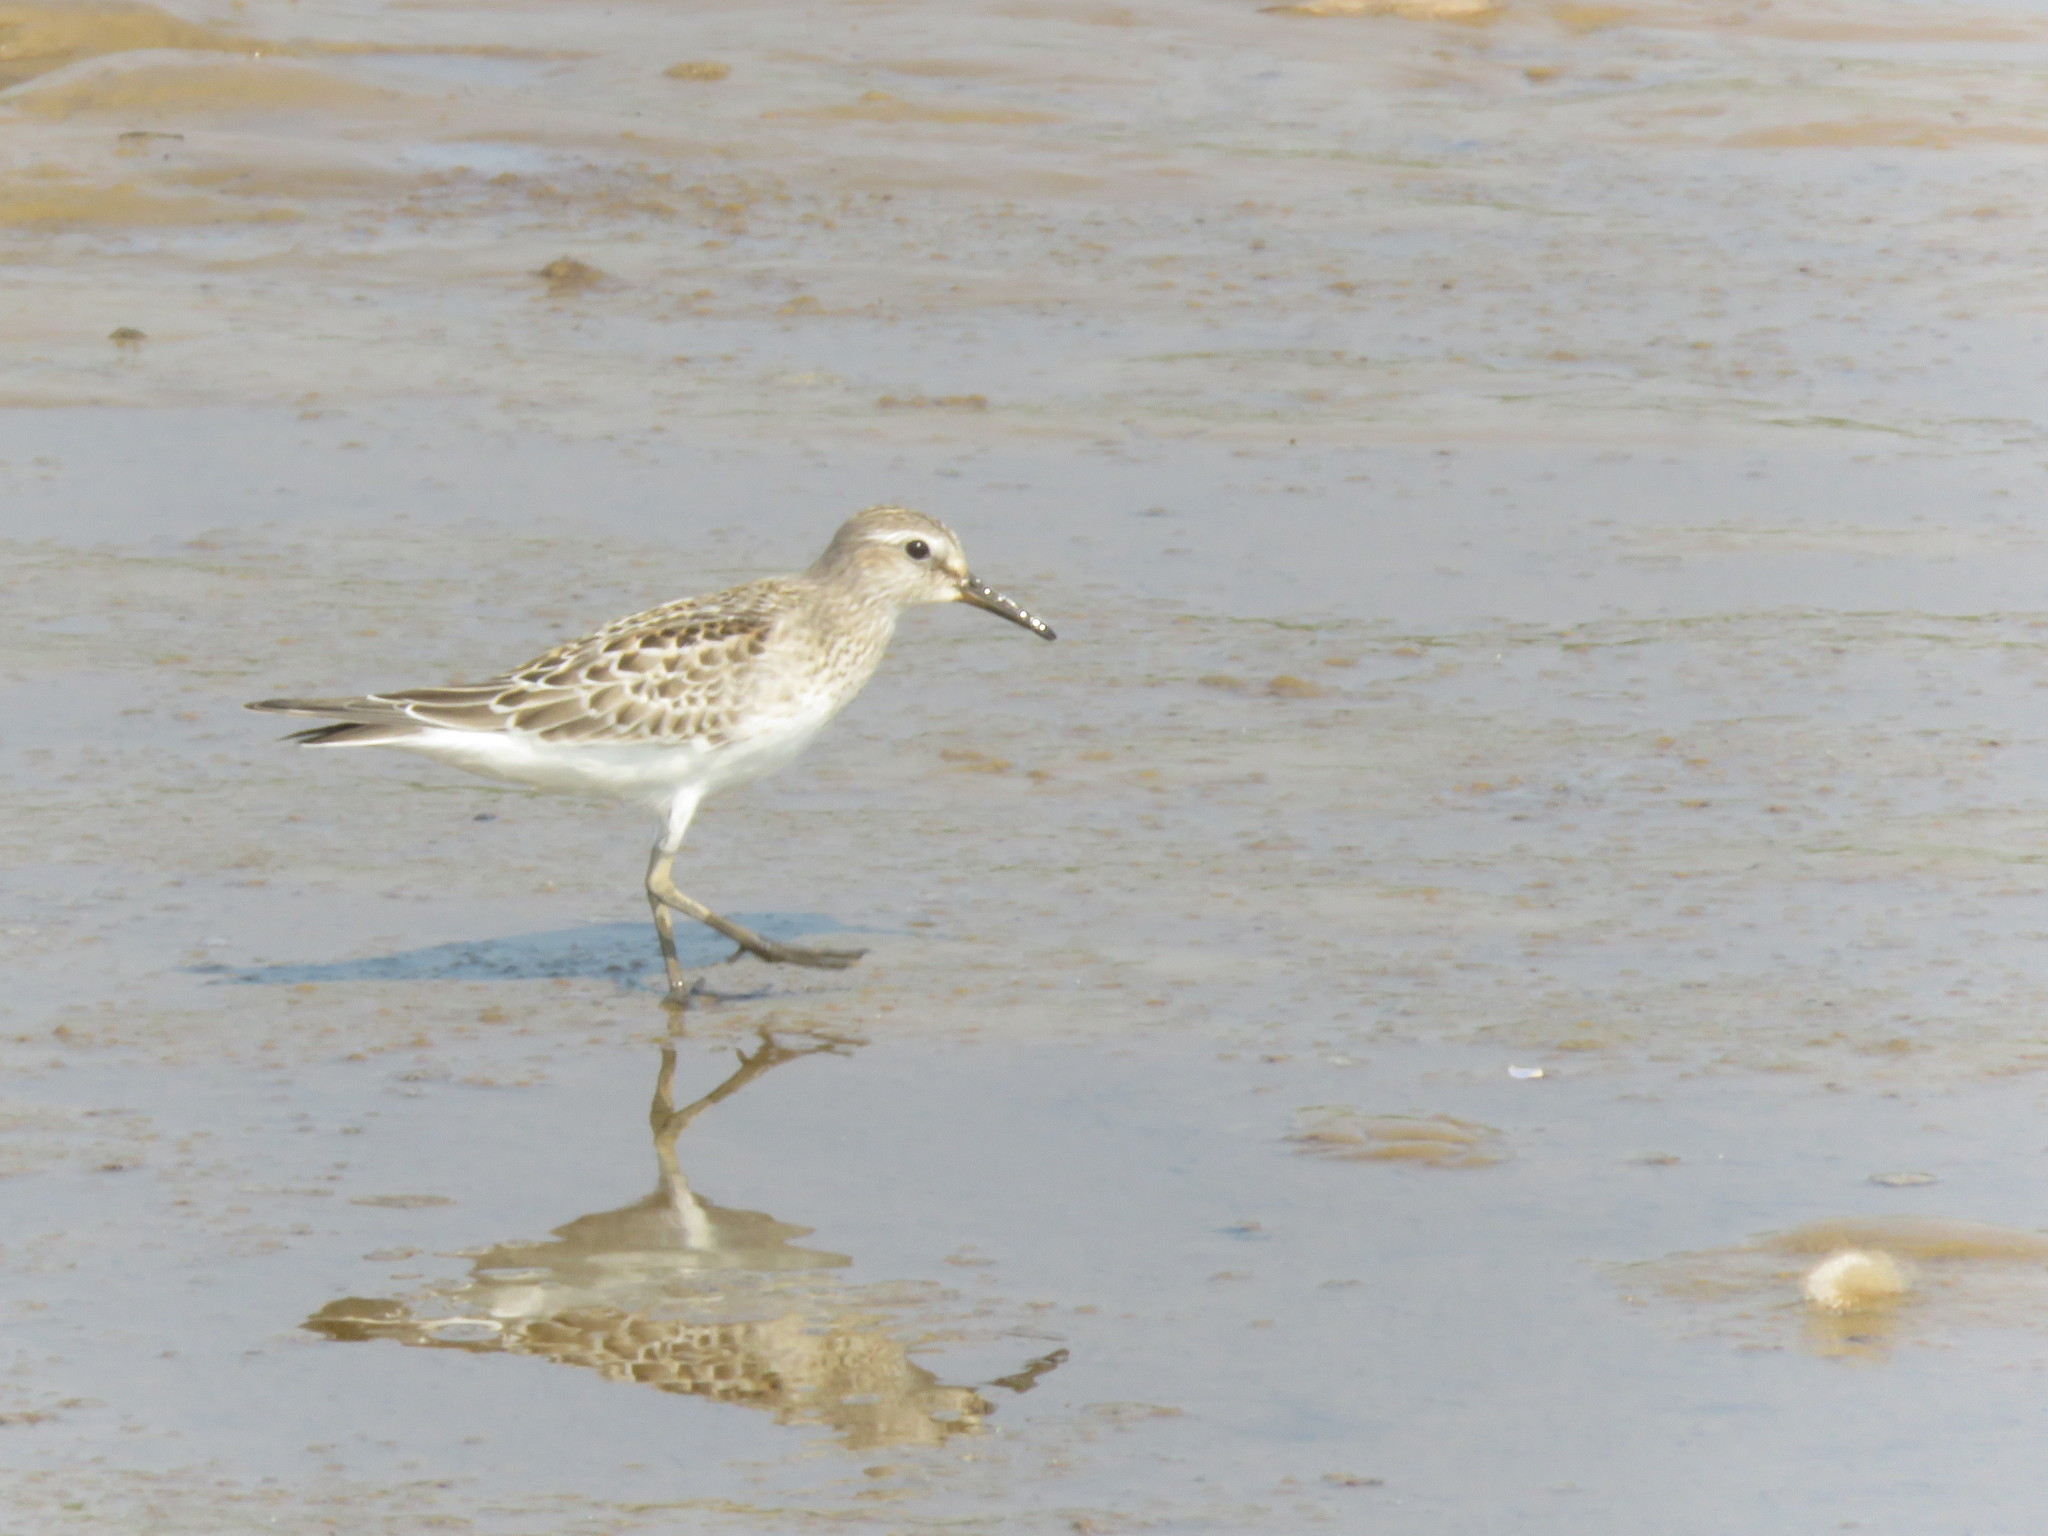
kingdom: Animalia
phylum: Chordata
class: Aves
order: Charadriiformes
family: Scolopacidae
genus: Calidris
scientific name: Calidris fuscicollis
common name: White-rumped sandpiper
